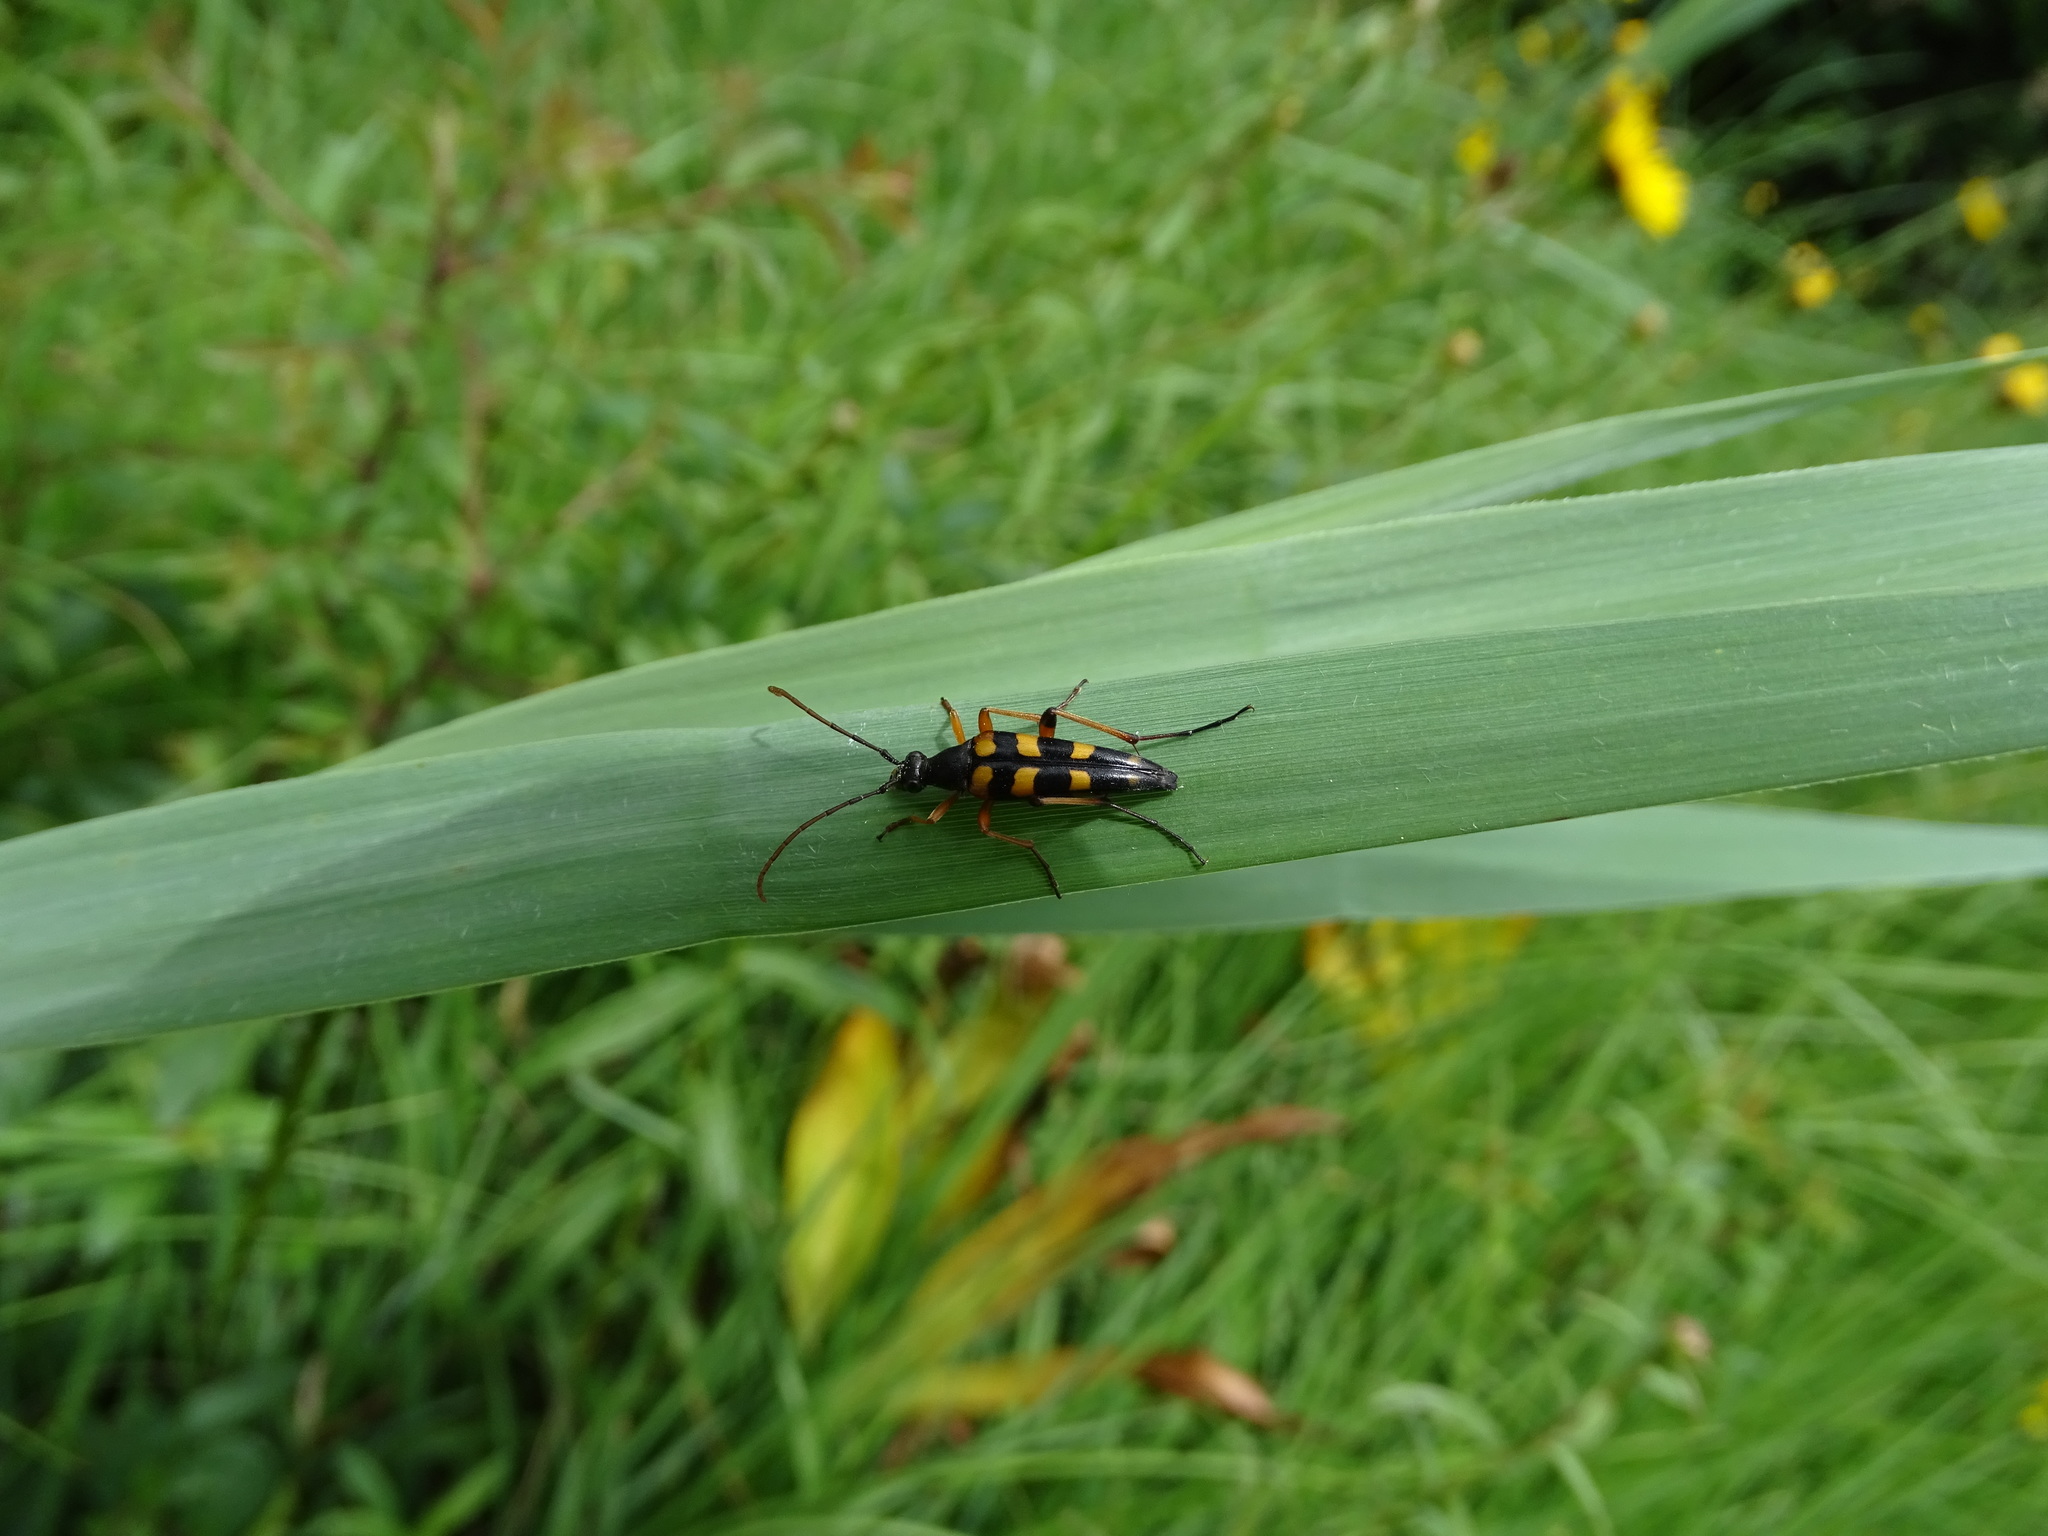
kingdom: Animalia
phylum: Arthropoda
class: Insecta
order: Coleoptera
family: Cerambycidae
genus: Strangalia
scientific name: Strangalia attenuata
